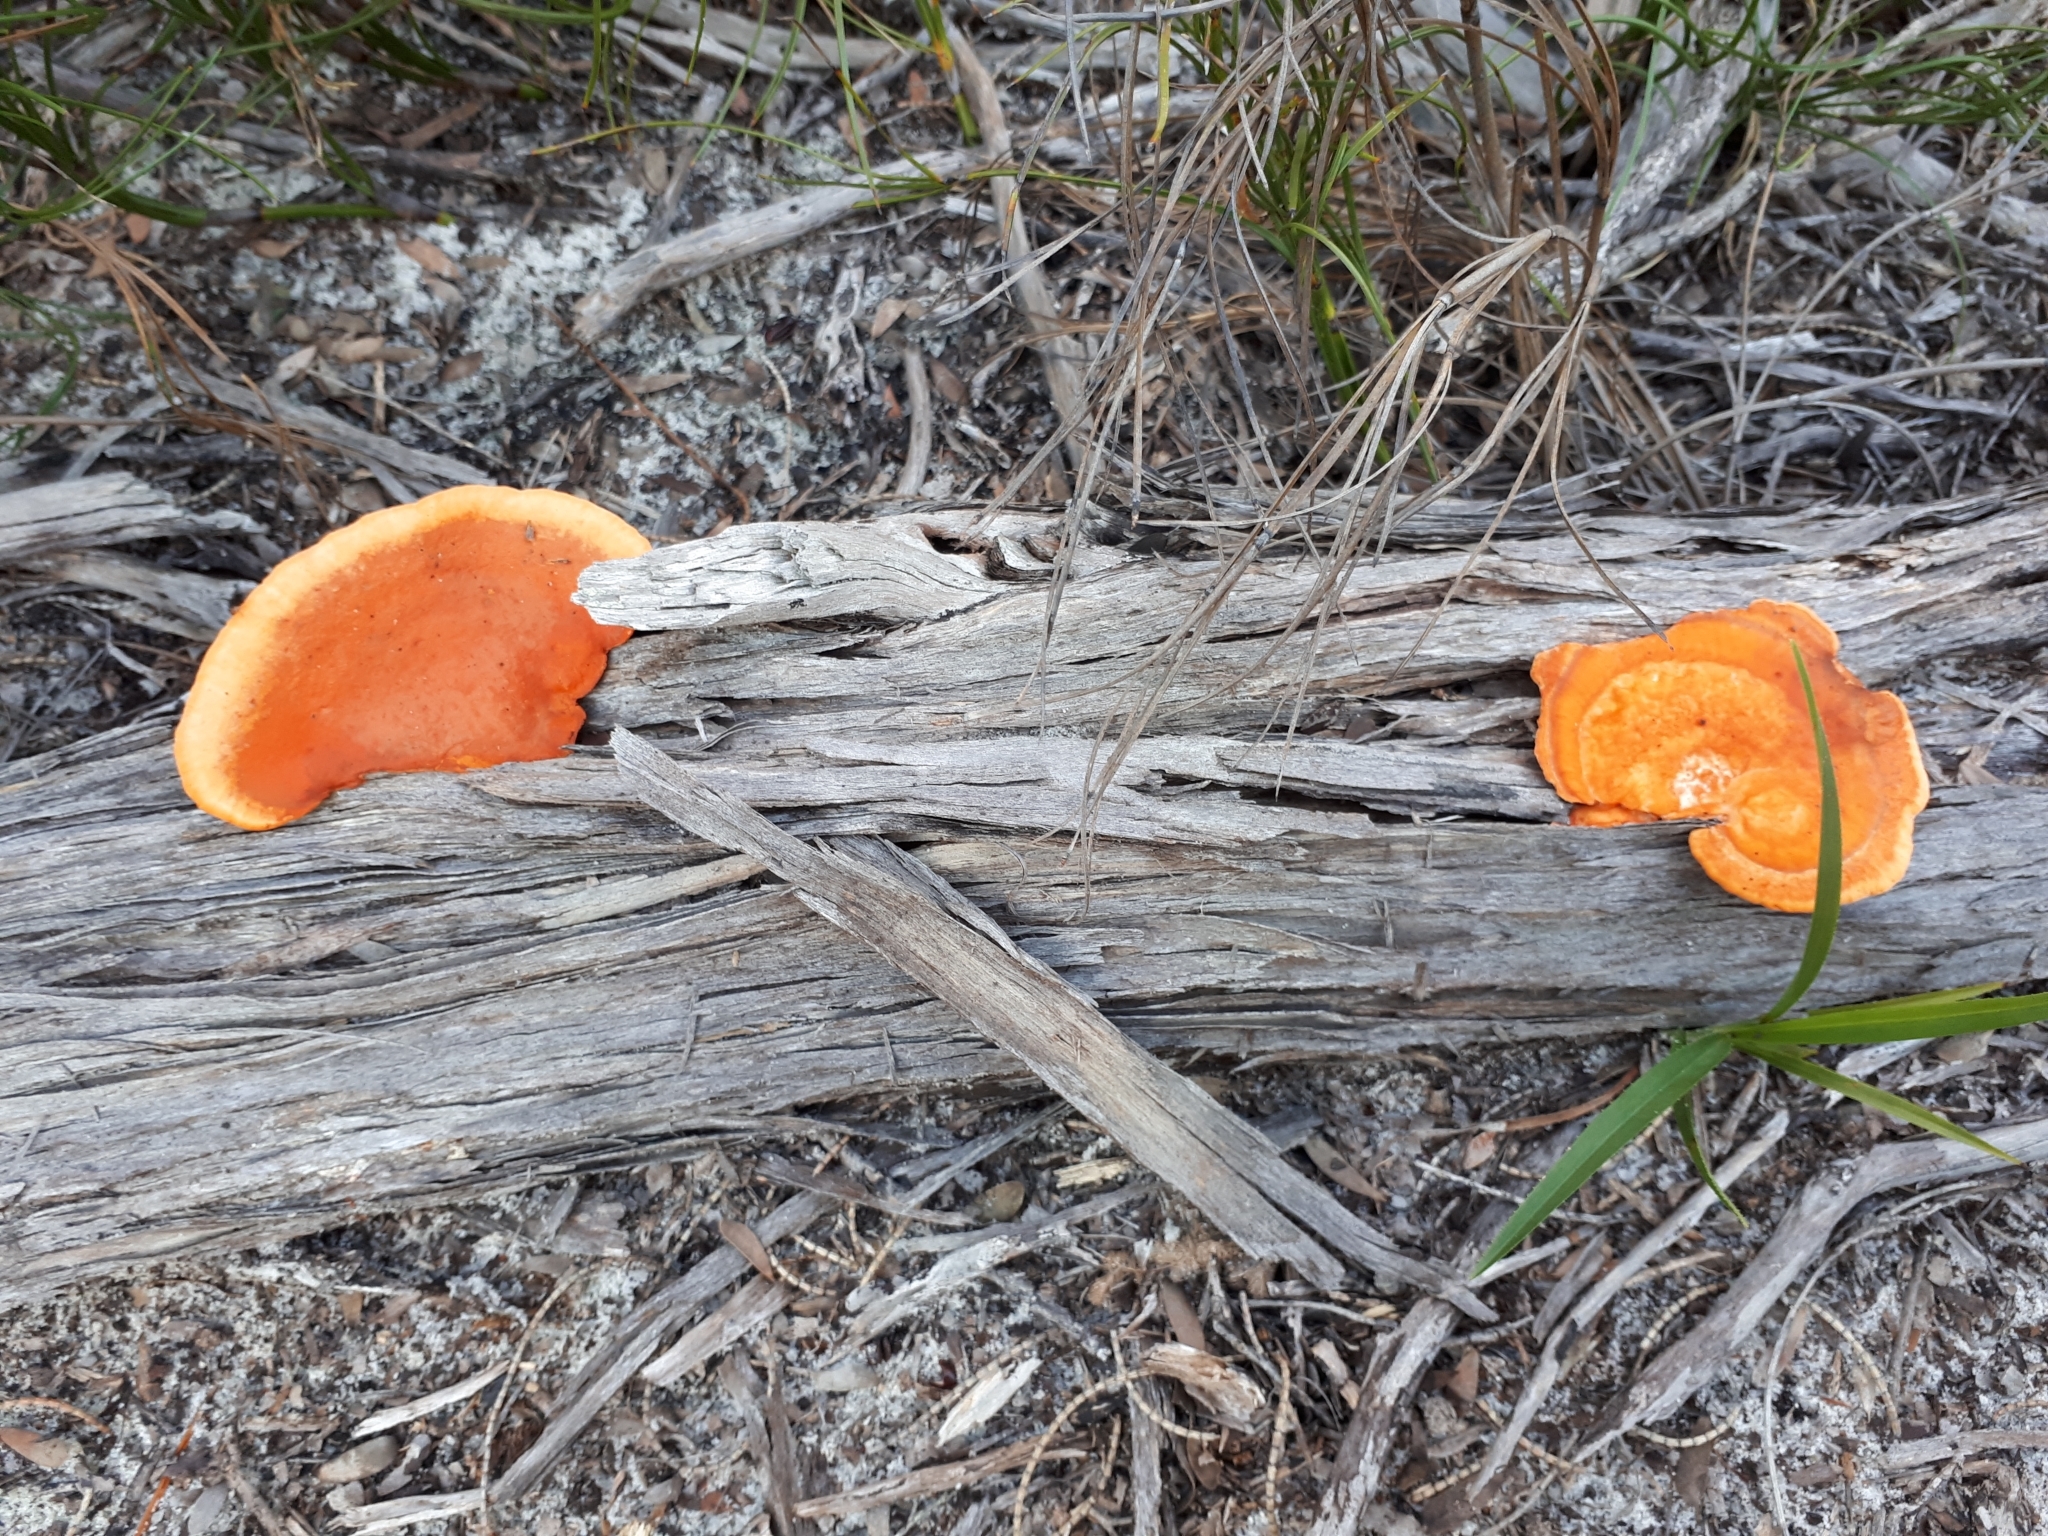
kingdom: Fungi
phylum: Basidiomycota
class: Agaricomycetes
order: Polyporales
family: Polyporaceae
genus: Trametes
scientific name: Trametes coccinea
